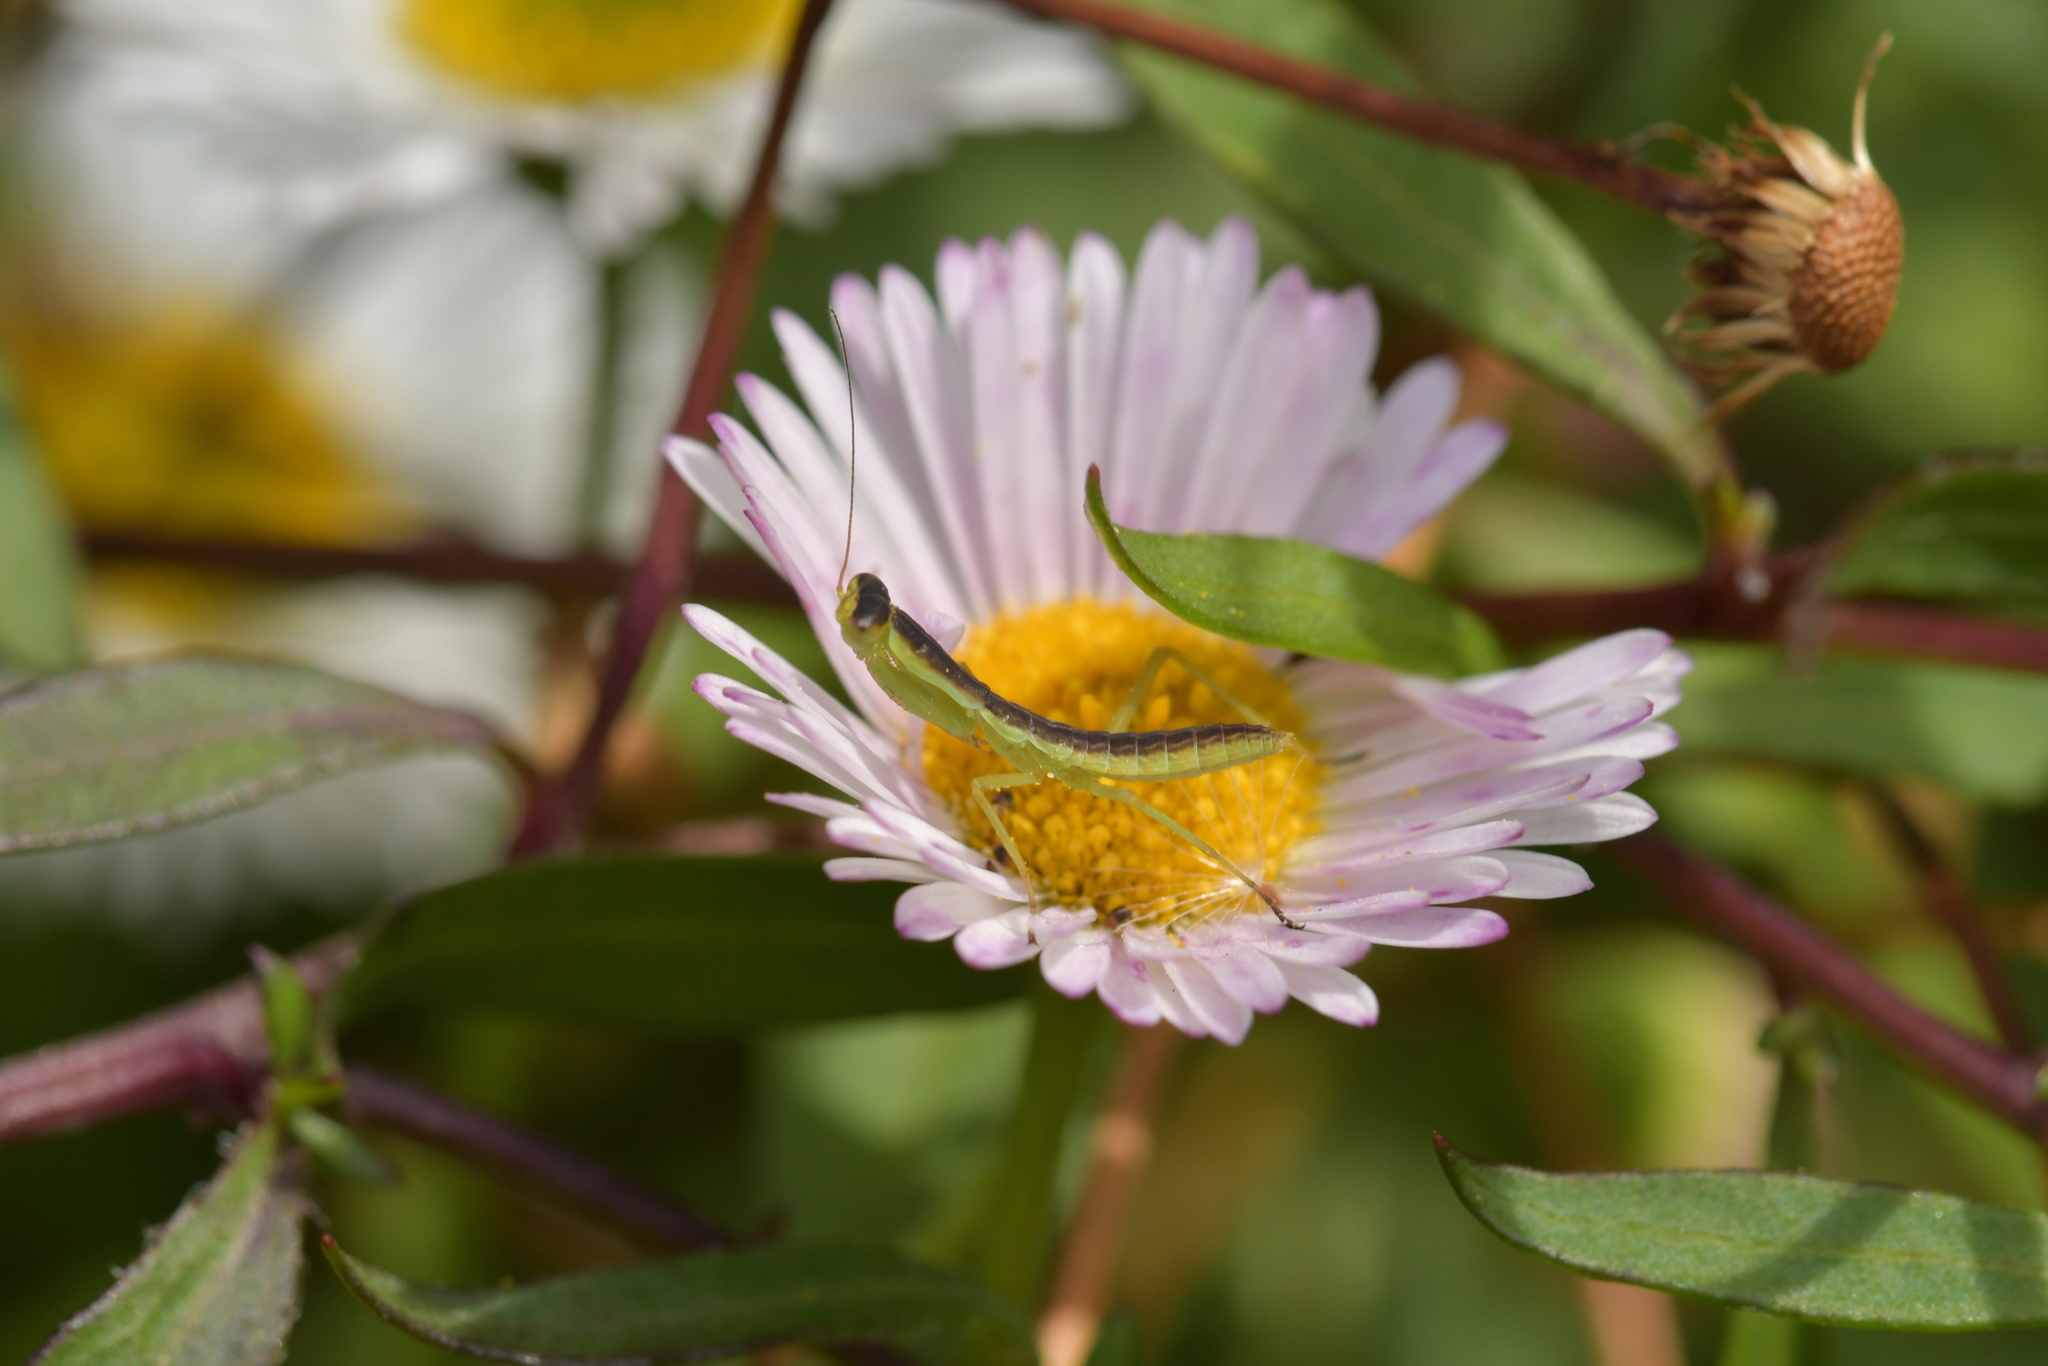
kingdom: Animalia
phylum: Arthropoda
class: Insecta
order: Mantodea
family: Mantidae
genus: Orthodera
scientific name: Orthodera novaezealandiae
